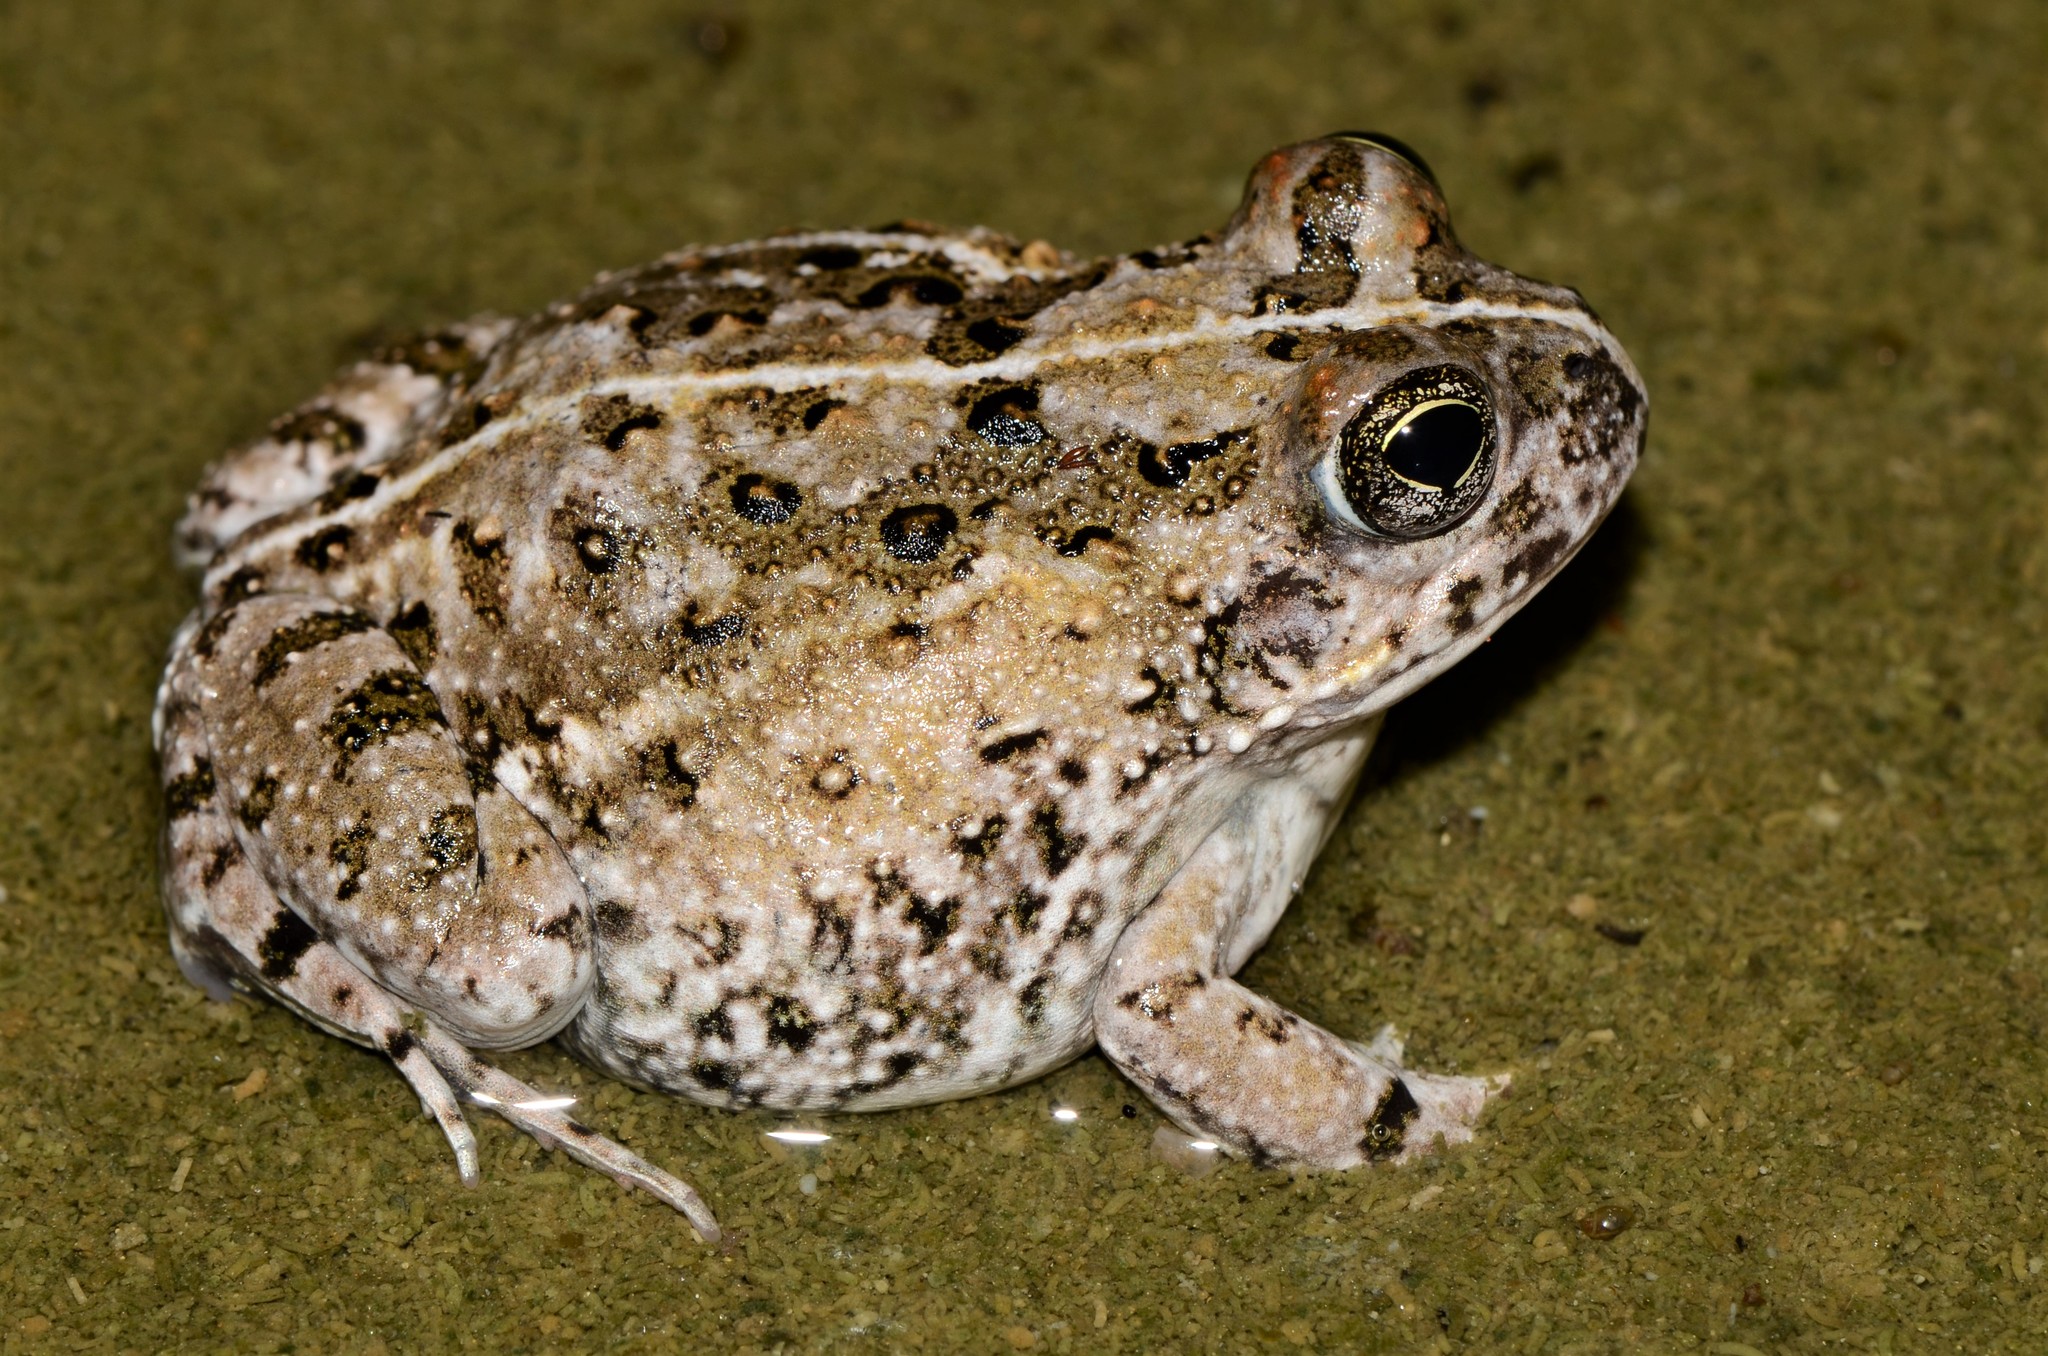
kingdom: Animalia
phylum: Chordata
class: Amphibia
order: Anura
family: Pyxicephalidae
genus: Tomopterna
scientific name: Tomopterna delalandii
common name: Delalande's burrowing bullfrog
